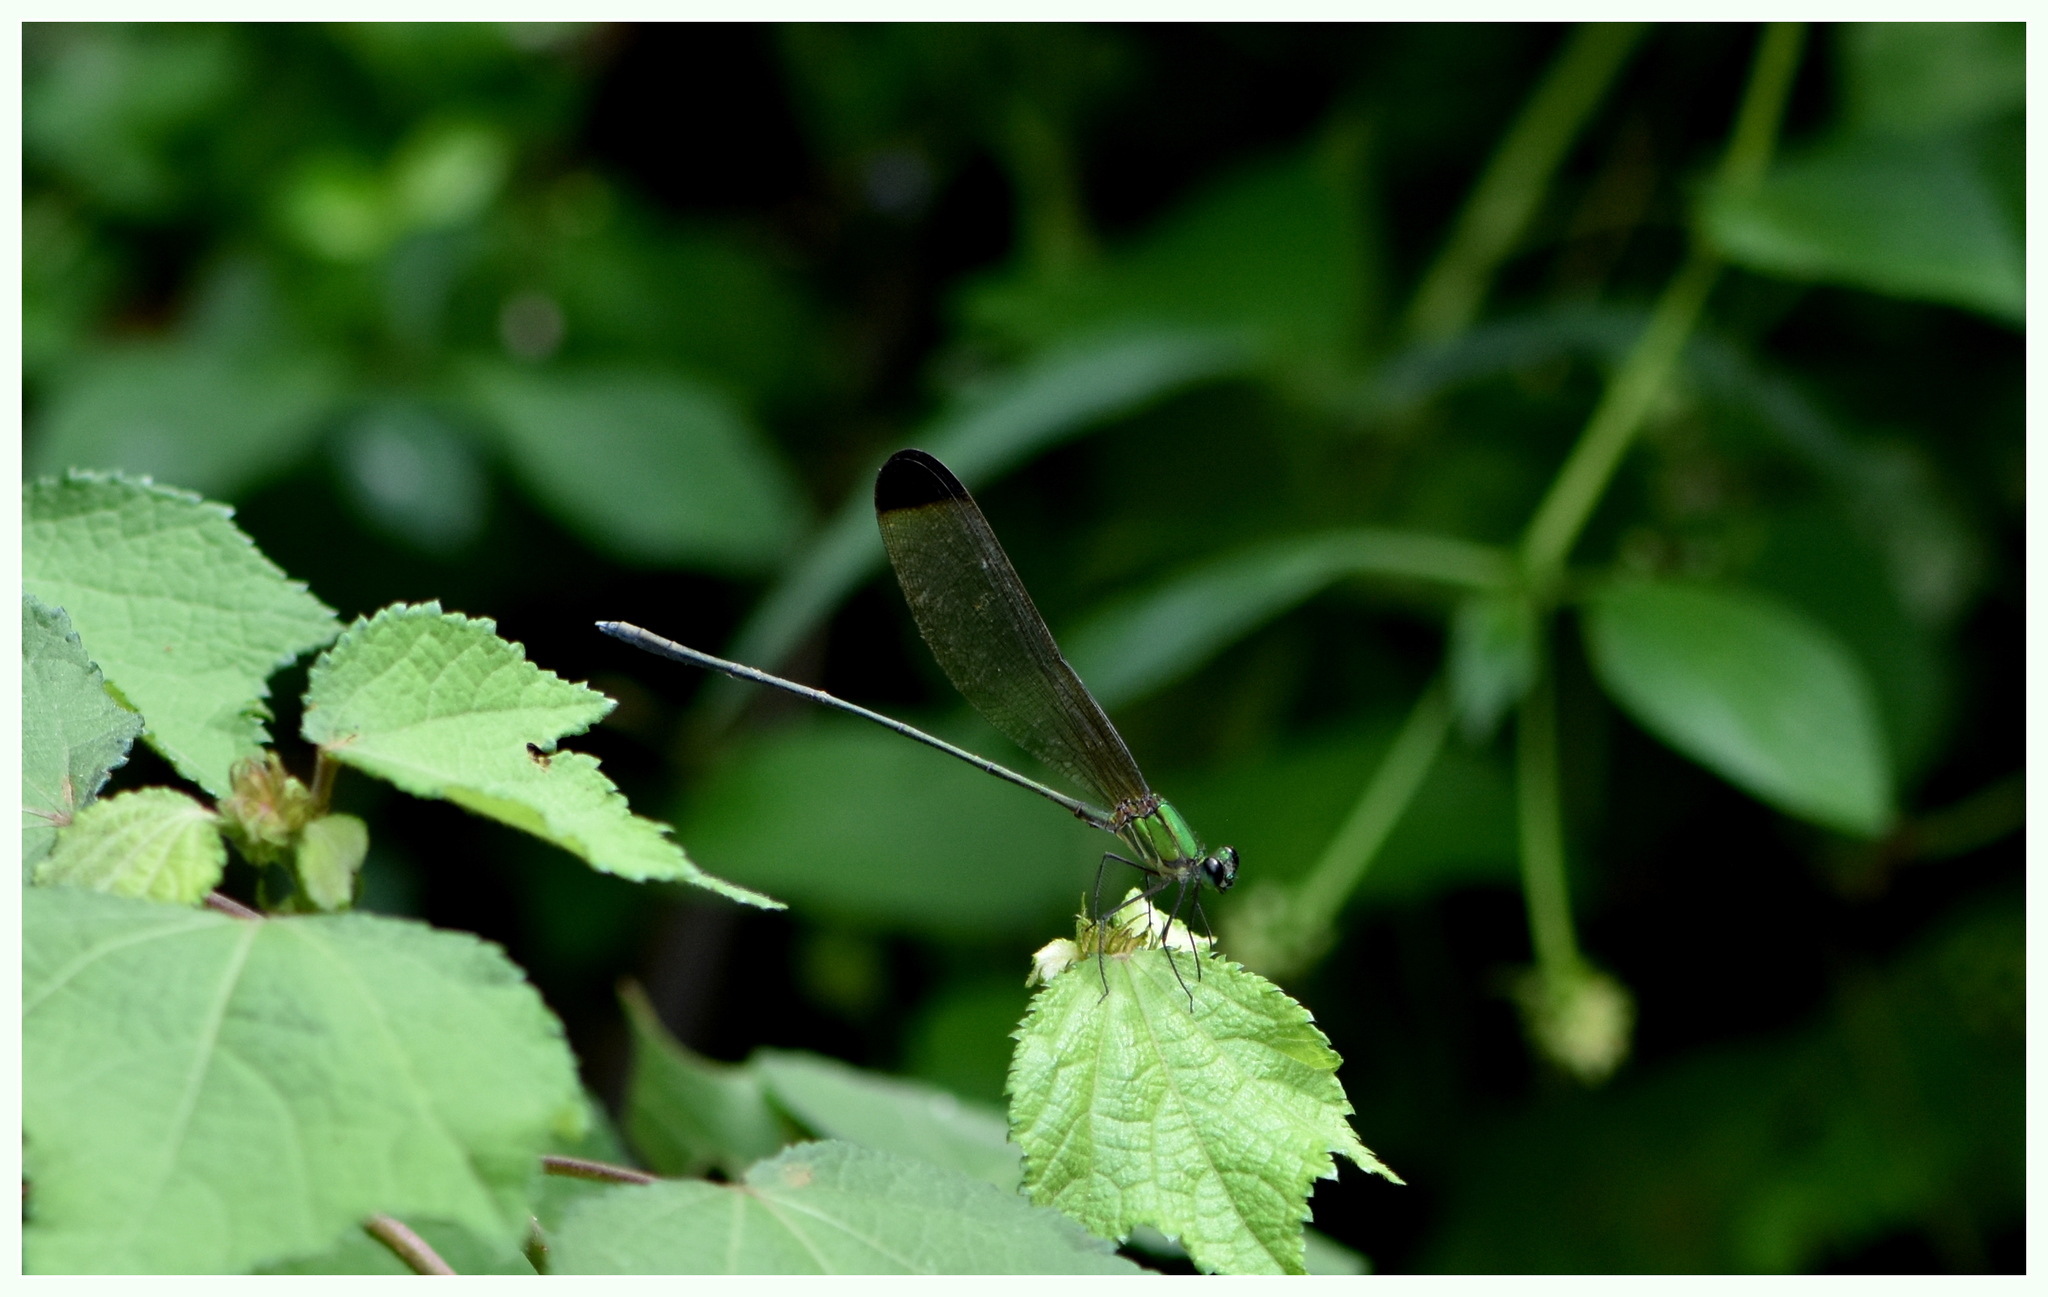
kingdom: Animalia
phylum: Arthropoda
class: Insecta
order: Odonata
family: Calopterygidae
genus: Vestalis
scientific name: Vestalis apicalis
